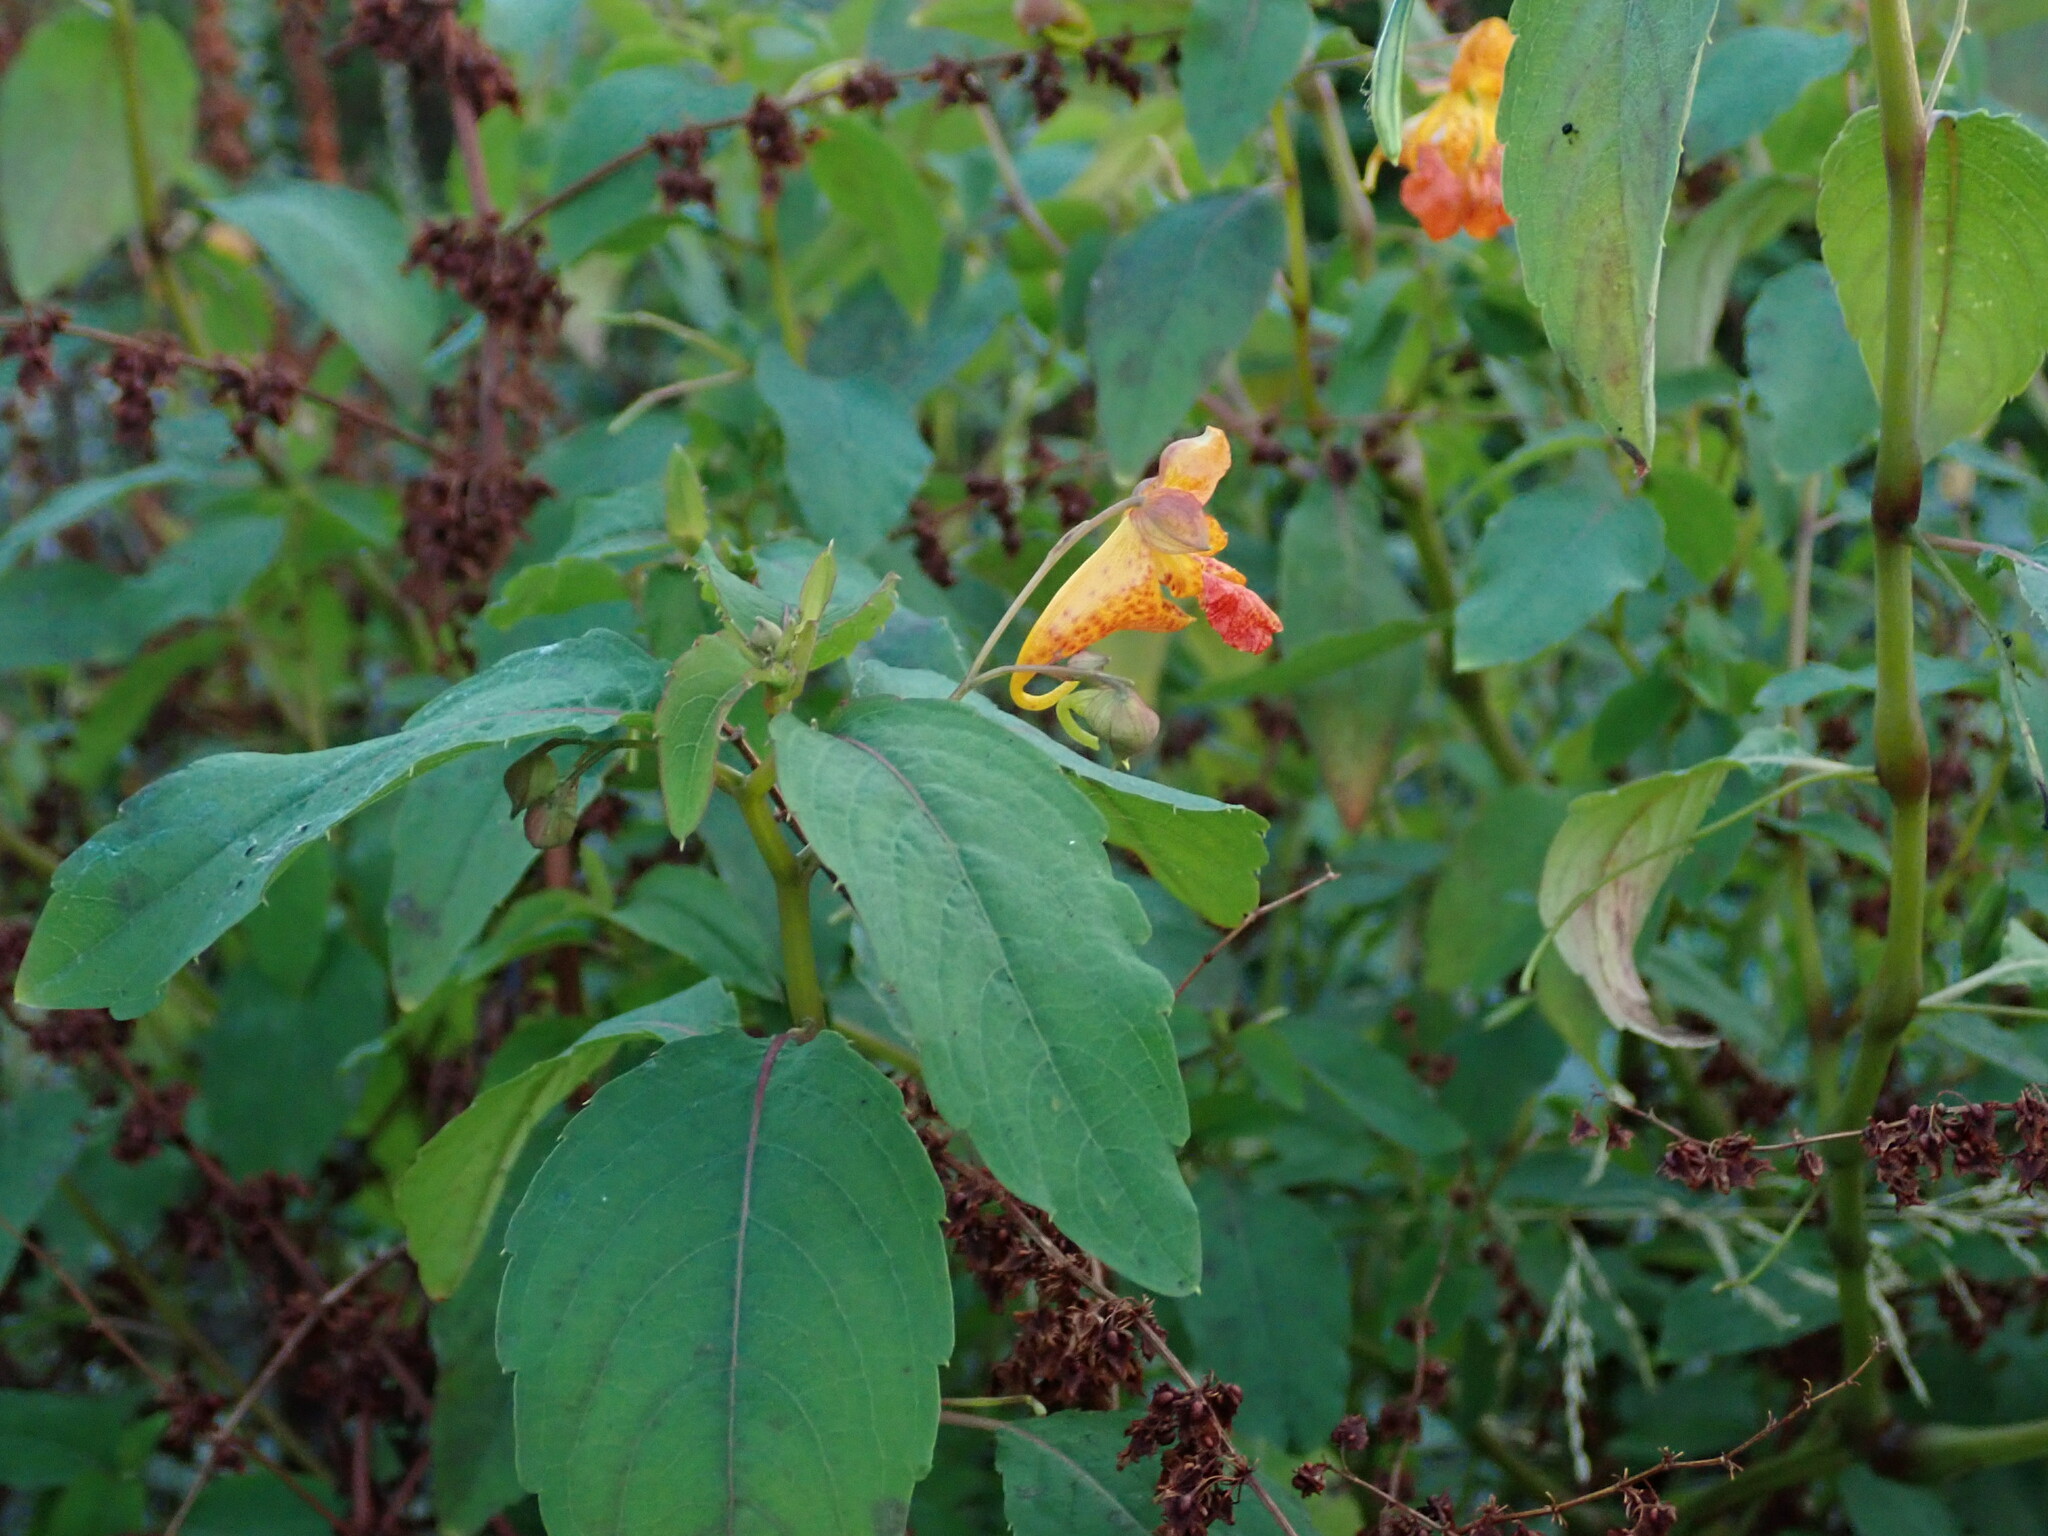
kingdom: Plantae
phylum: Tracheophyta
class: Magnoliopsida
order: Ericales
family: Balsaminaceae
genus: Impatiens
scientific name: Impatiens capensis
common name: Orange balsam
